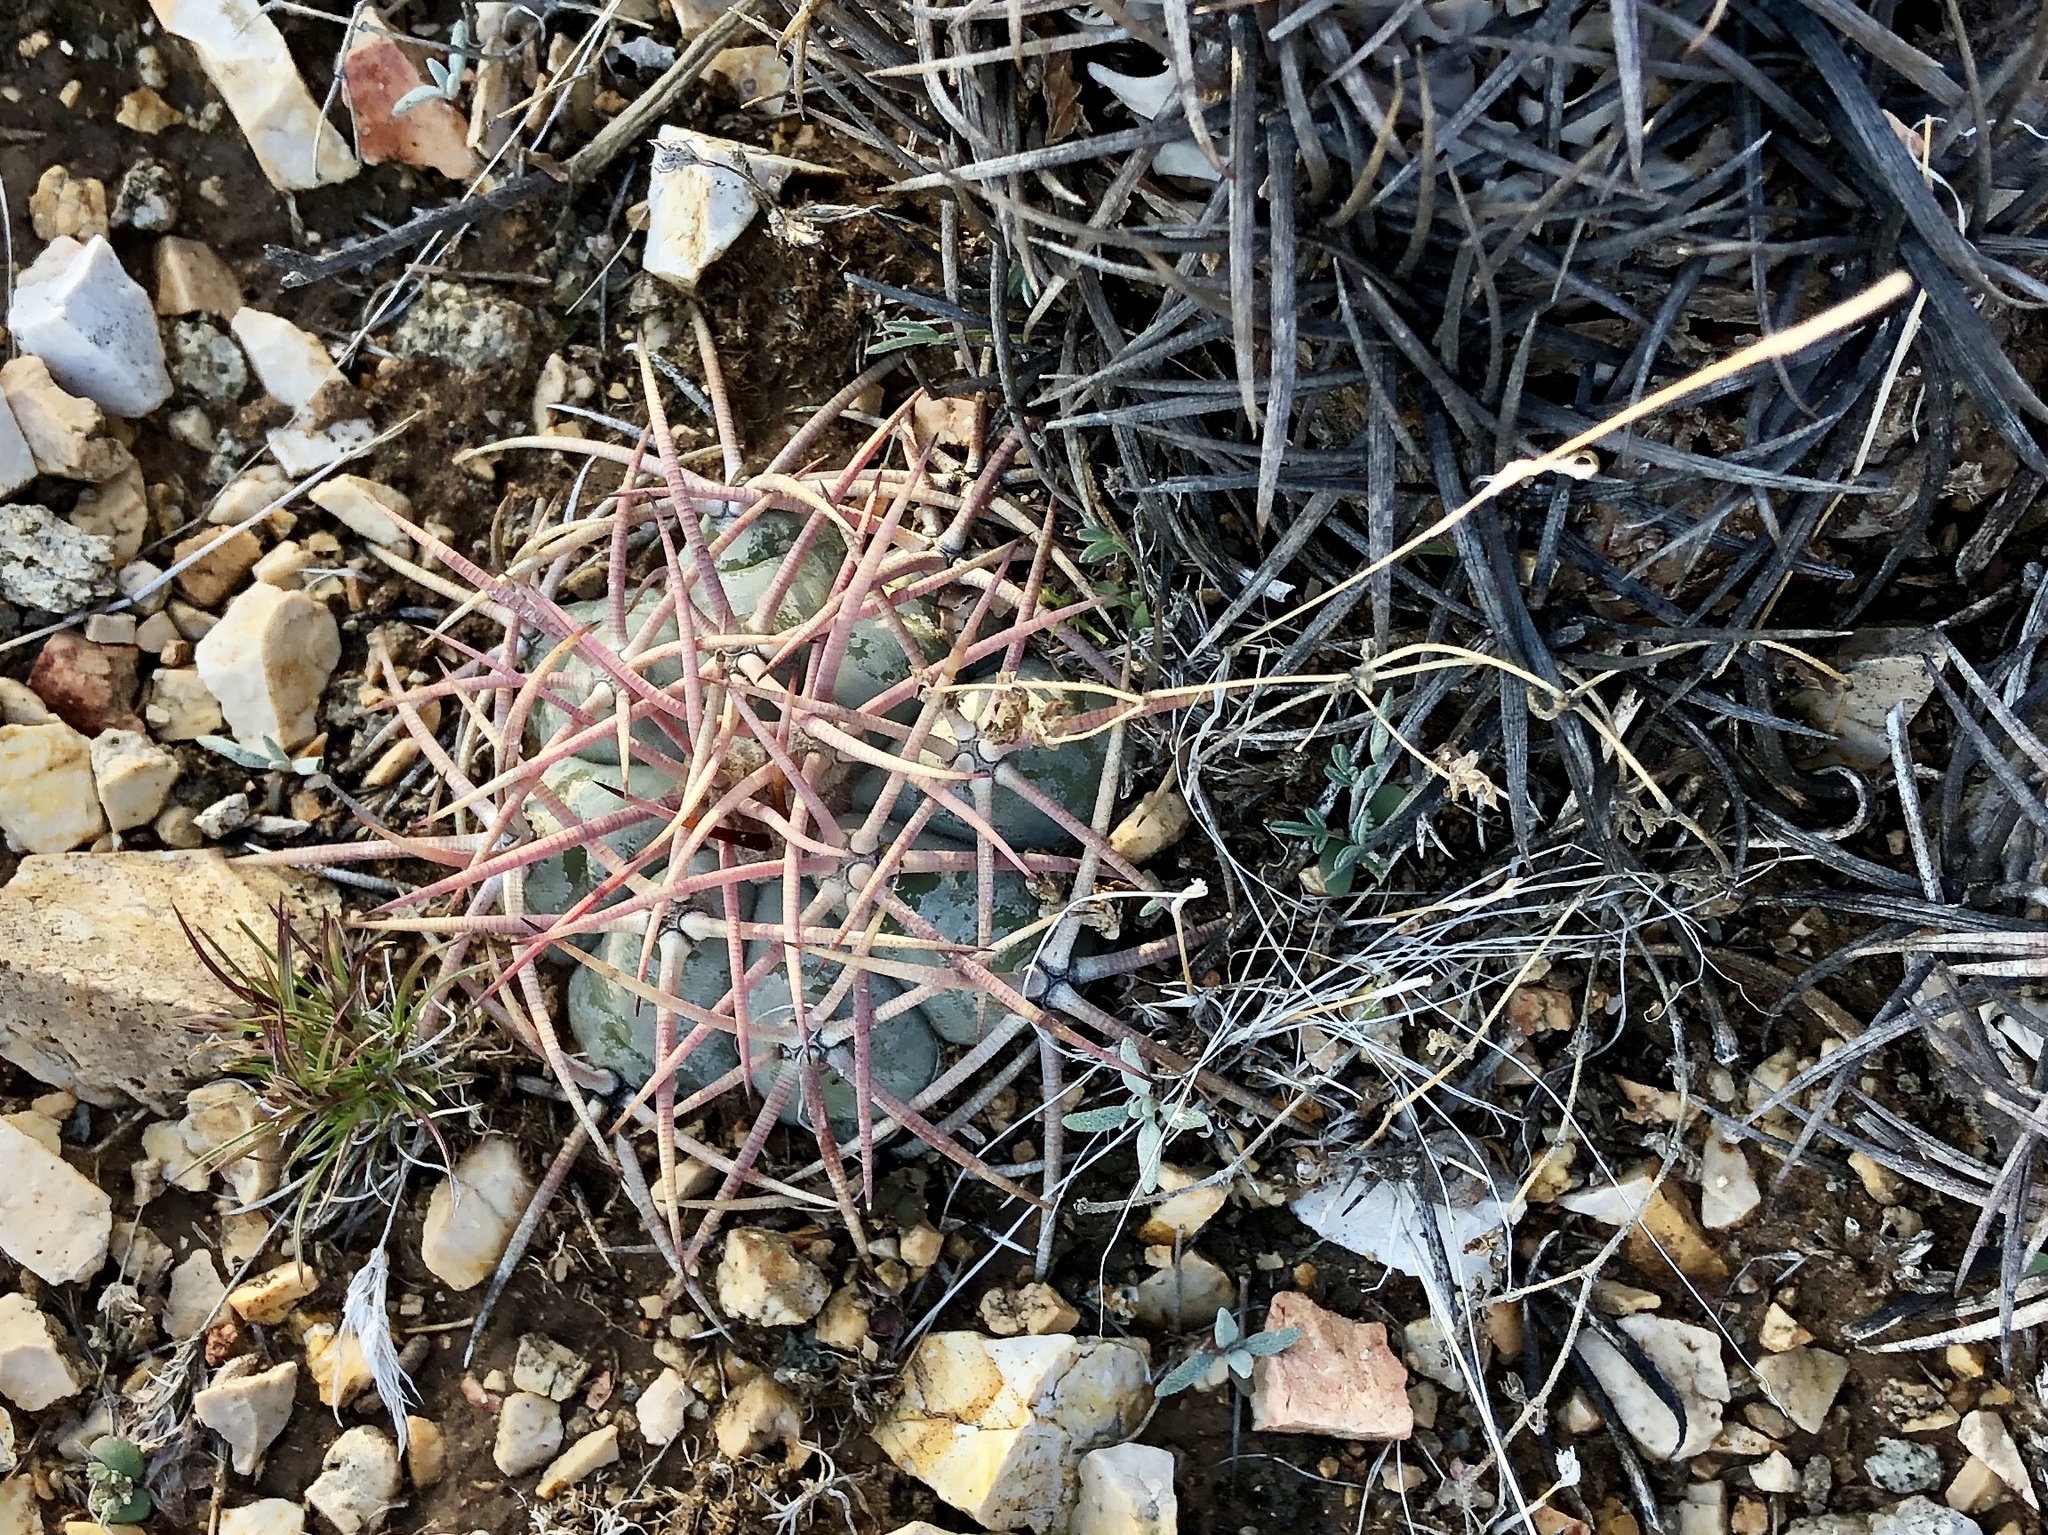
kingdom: Plantae
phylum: Tracheophyta
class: Magnoliopsida
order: Caryophyllales
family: Cactaceae
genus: Echinocactus
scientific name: Echinocactus horizonthalonius
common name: Devilshead
